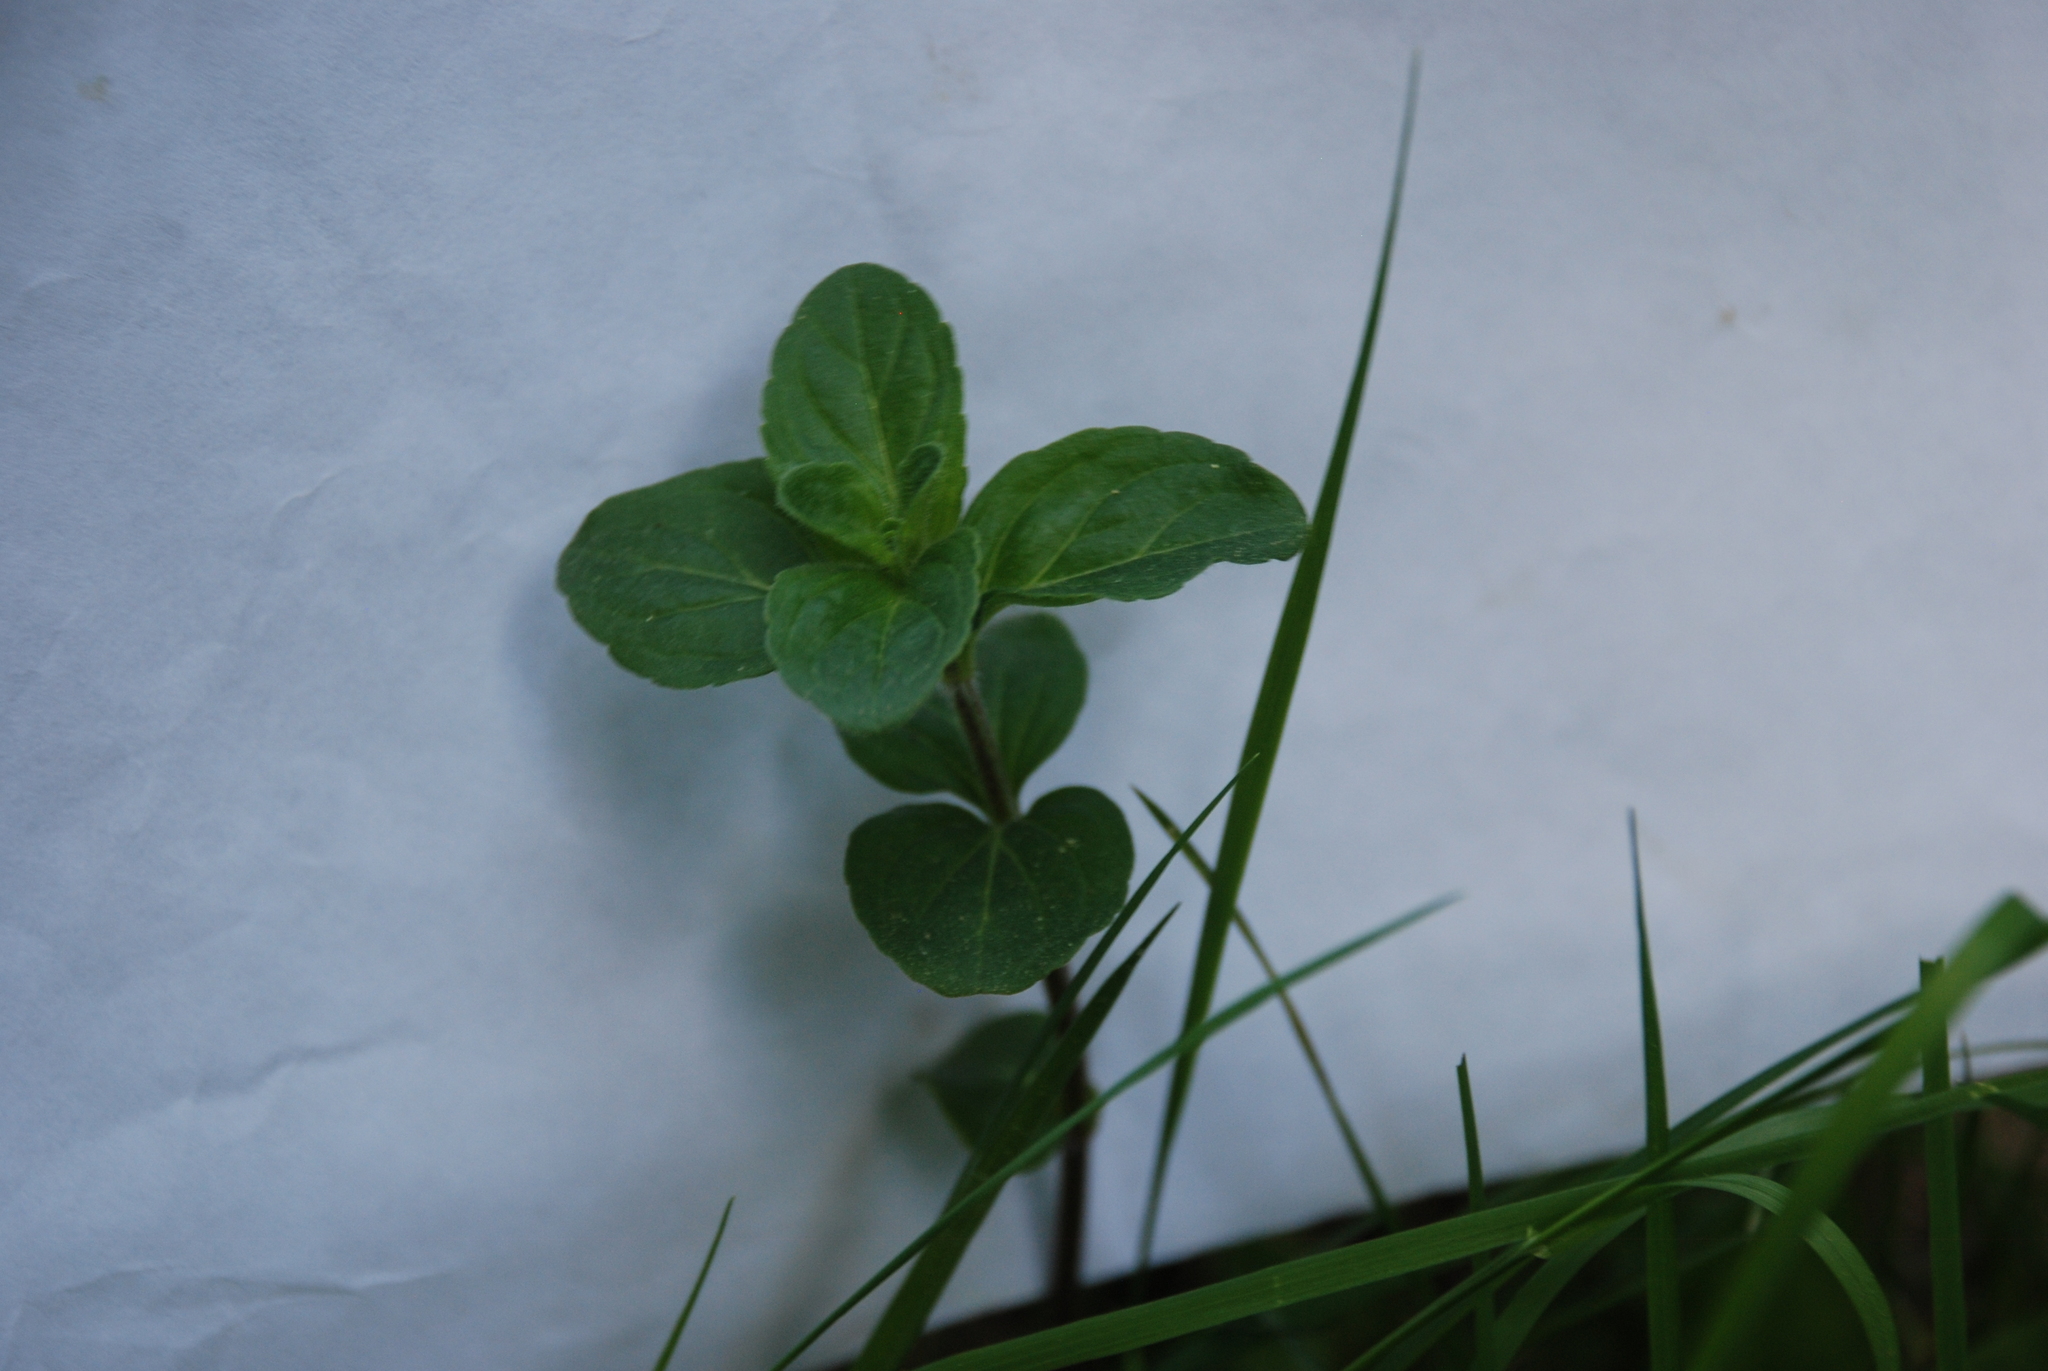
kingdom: Plantae
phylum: Tracheophyta
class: Magnoliopsida
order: Lamiales
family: Lamiaceae
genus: Mentha
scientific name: Mentha arvensis
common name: Corn mint
